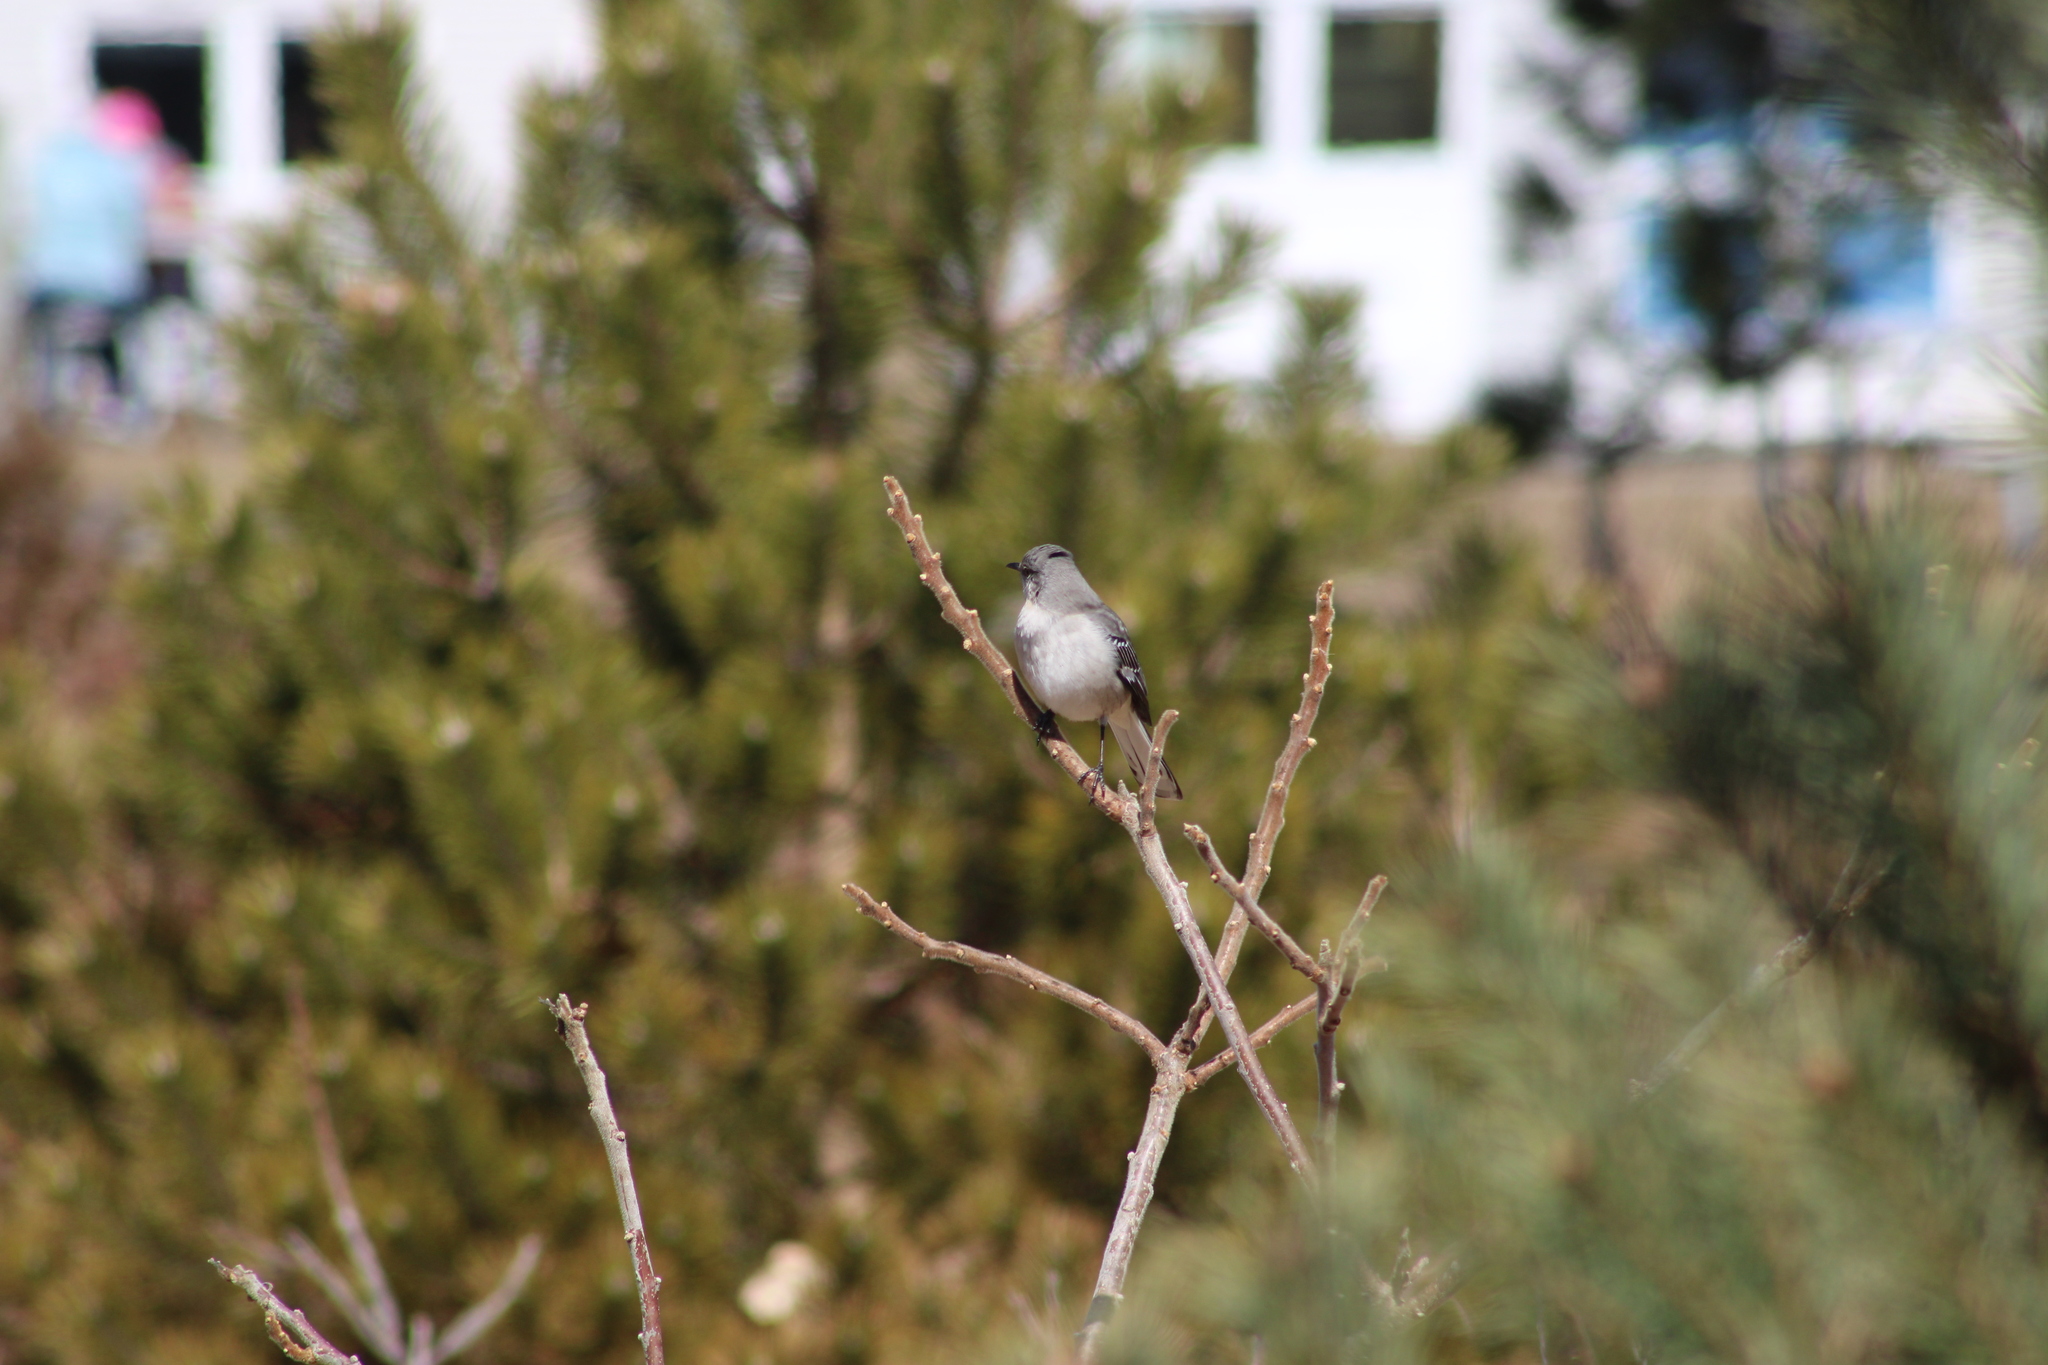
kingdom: Animalia
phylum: Chordata
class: Aves
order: Passeriformes
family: Mimidae
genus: Mimus
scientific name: Mimus polyglottos
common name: Northern mockingbird
